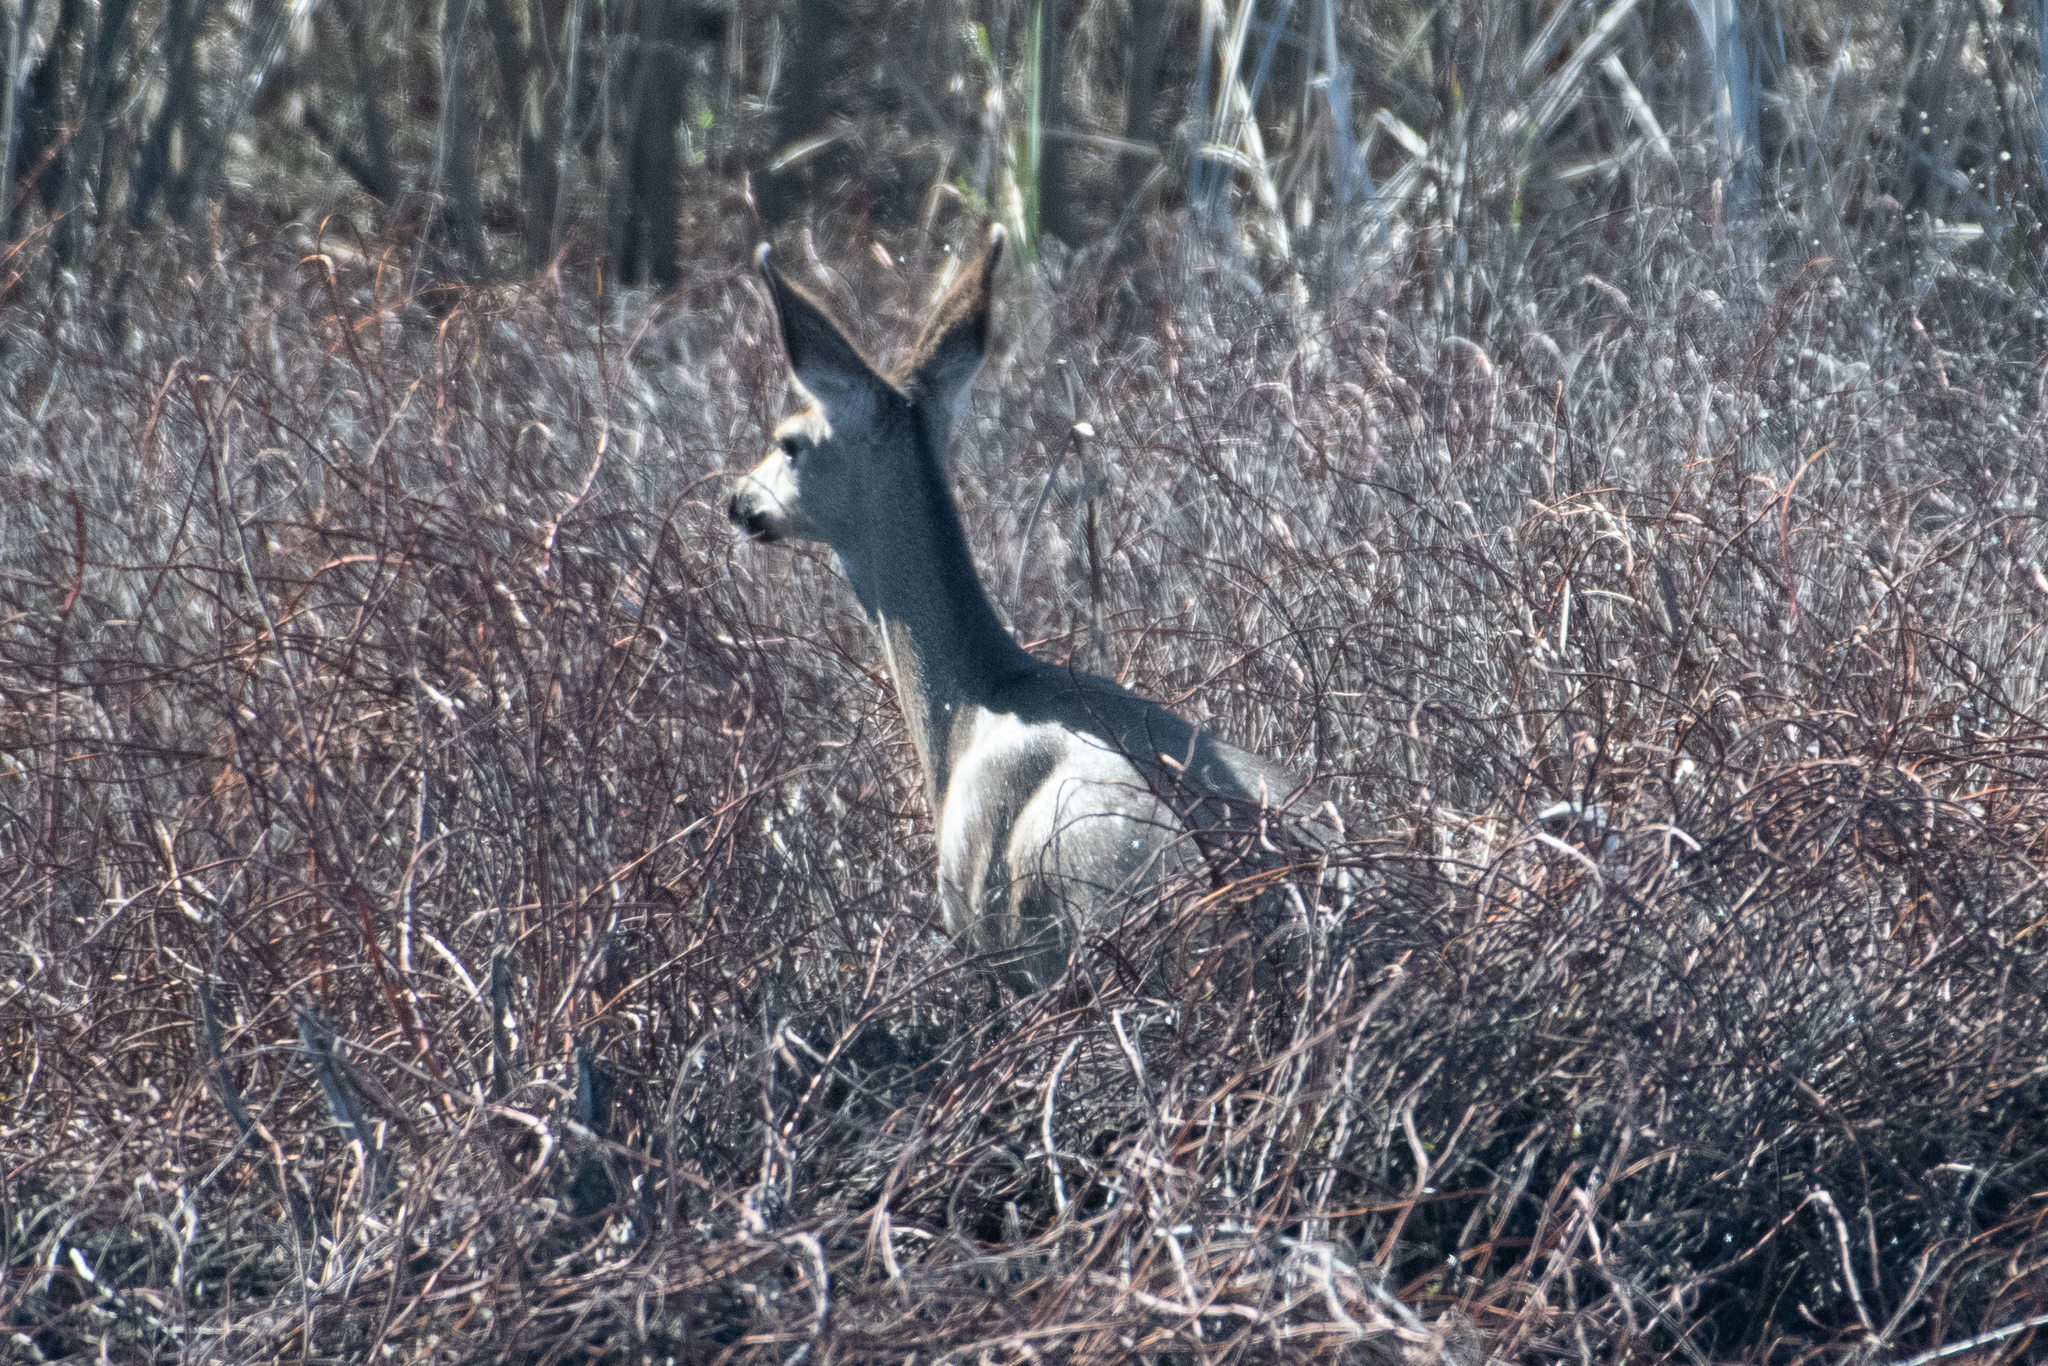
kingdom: Animalia
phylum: Chordata
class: Mammalia
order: Artiodactyla
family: Cervidae
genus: Odocoileus
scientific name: Odocoileus hemionus
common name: Mule deer
